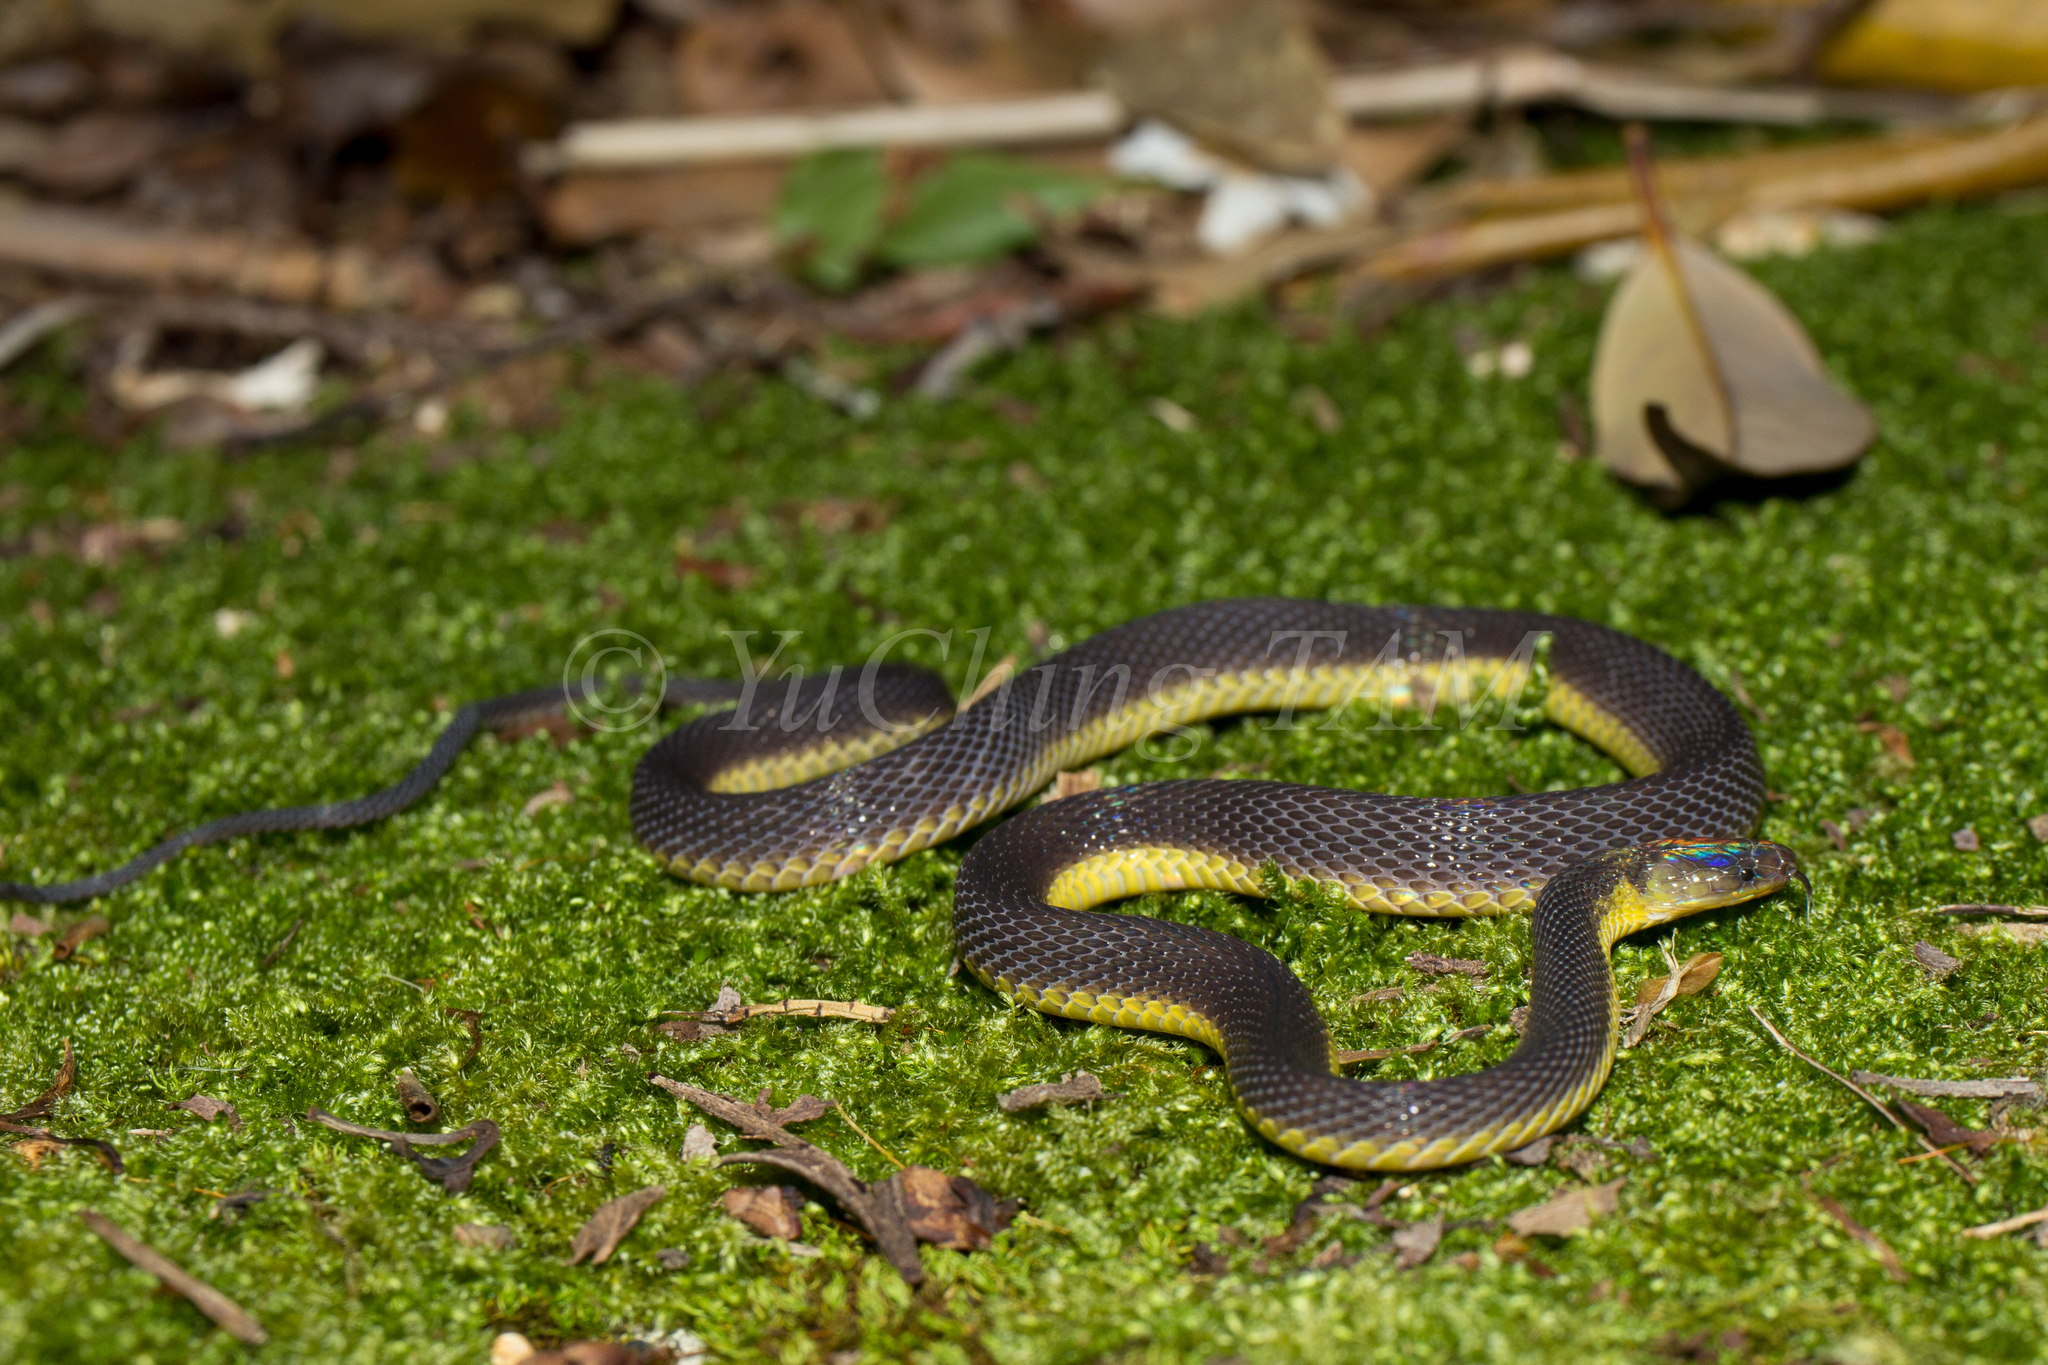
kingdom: Animalia
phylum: Chordata
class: Squamata
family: Xenodermidae
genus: Achalinus
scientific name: Achalinus werneri
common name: Amami takachiho snake
